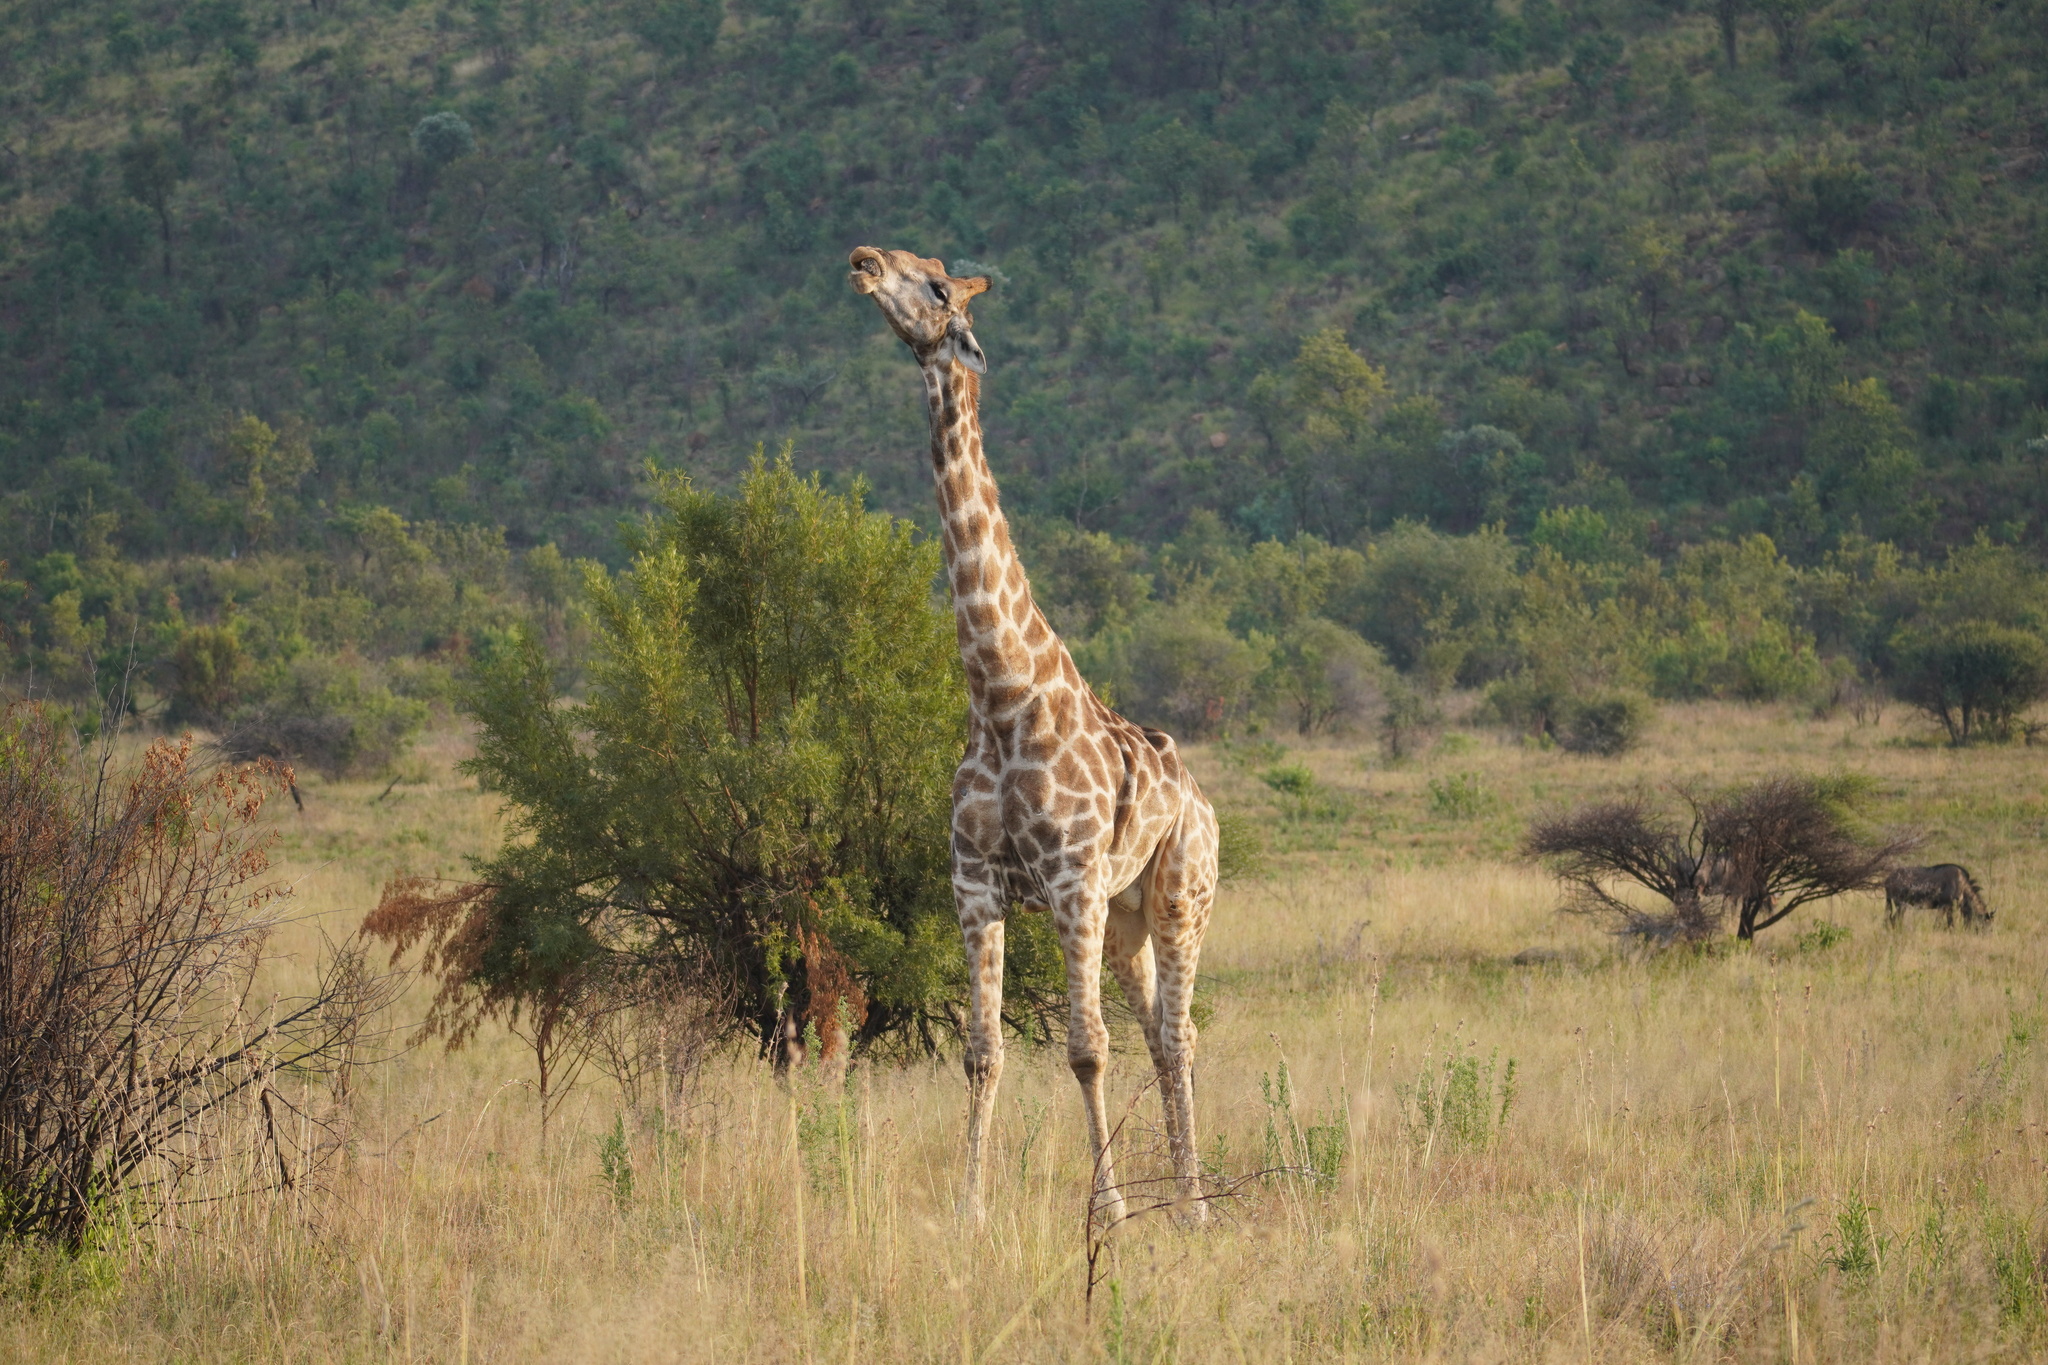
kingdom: Animalia
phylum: Chordata
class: Mammalia
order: Artiodactyla
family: Giraffidae
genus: Giraffa
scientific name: Giraffa giraffa
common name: Southern giraffe
